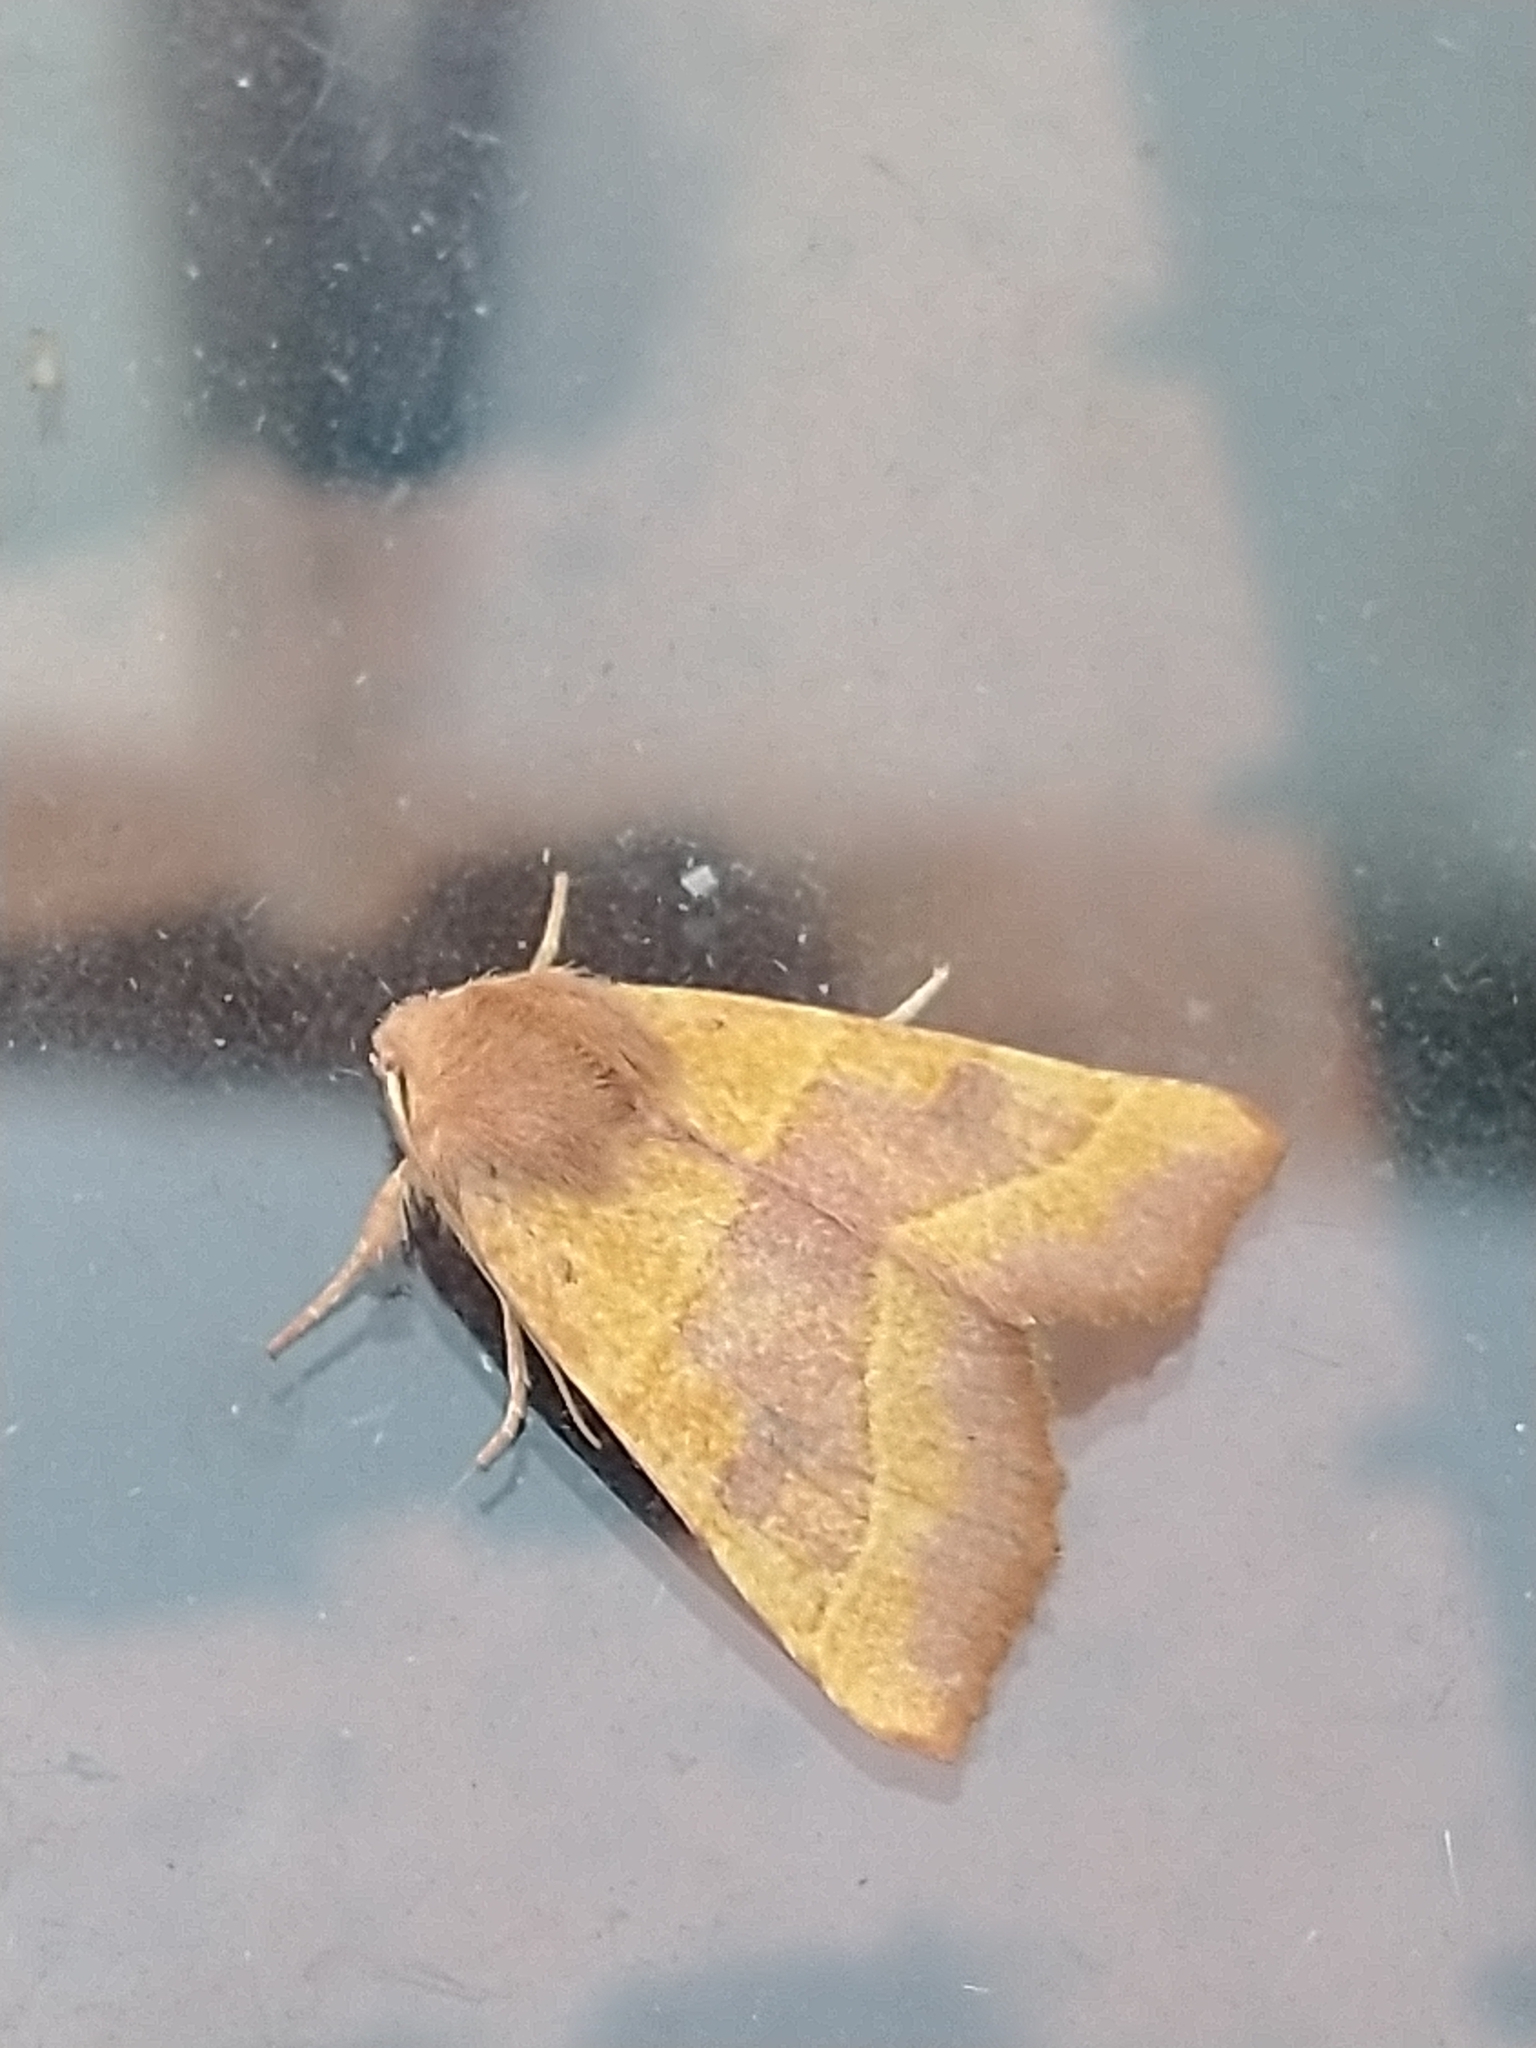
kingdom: Animalia
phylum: Arthropoda
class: Insecta
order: Lepidoptera
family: Noctuidae
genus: Atethmia
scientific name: Atethmia centrago
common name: Centre-barred sallow
